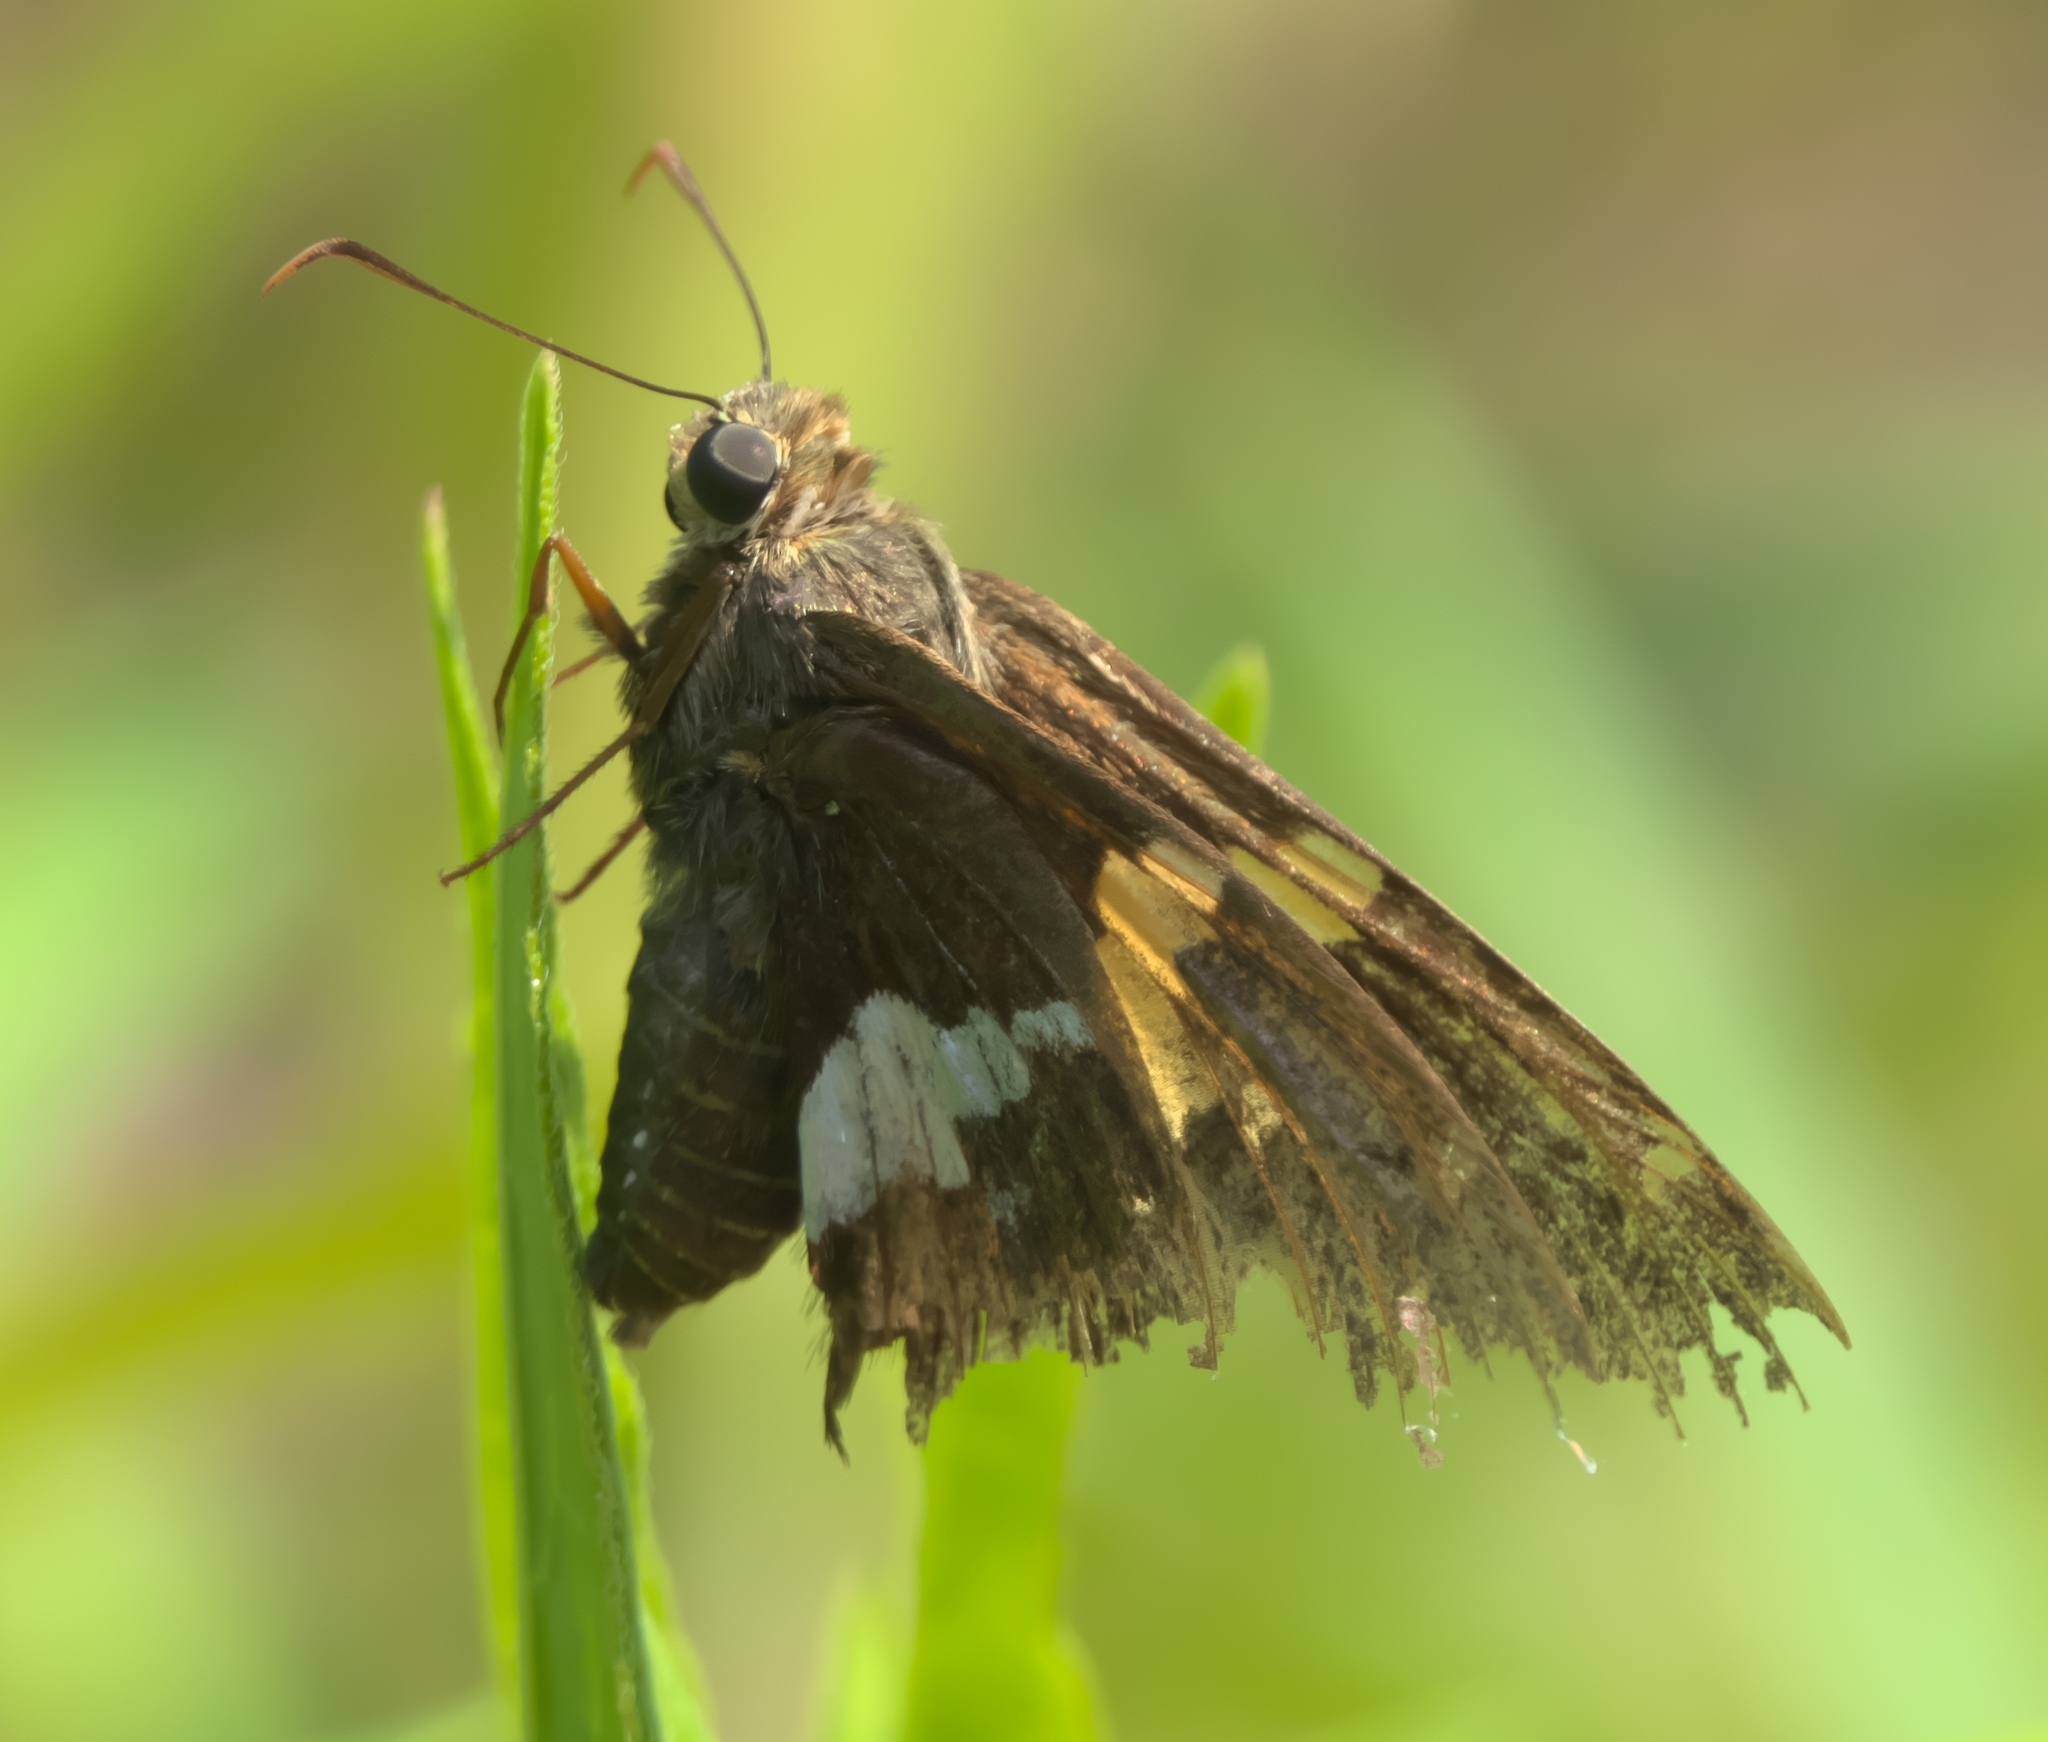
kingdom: Animalia
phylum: Arthropoda
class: Insecta
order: Lepidoptera
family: Hesperiidae
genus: Epargyreus
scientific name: Epargyreus clarus
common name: Silver-spotted skipper
